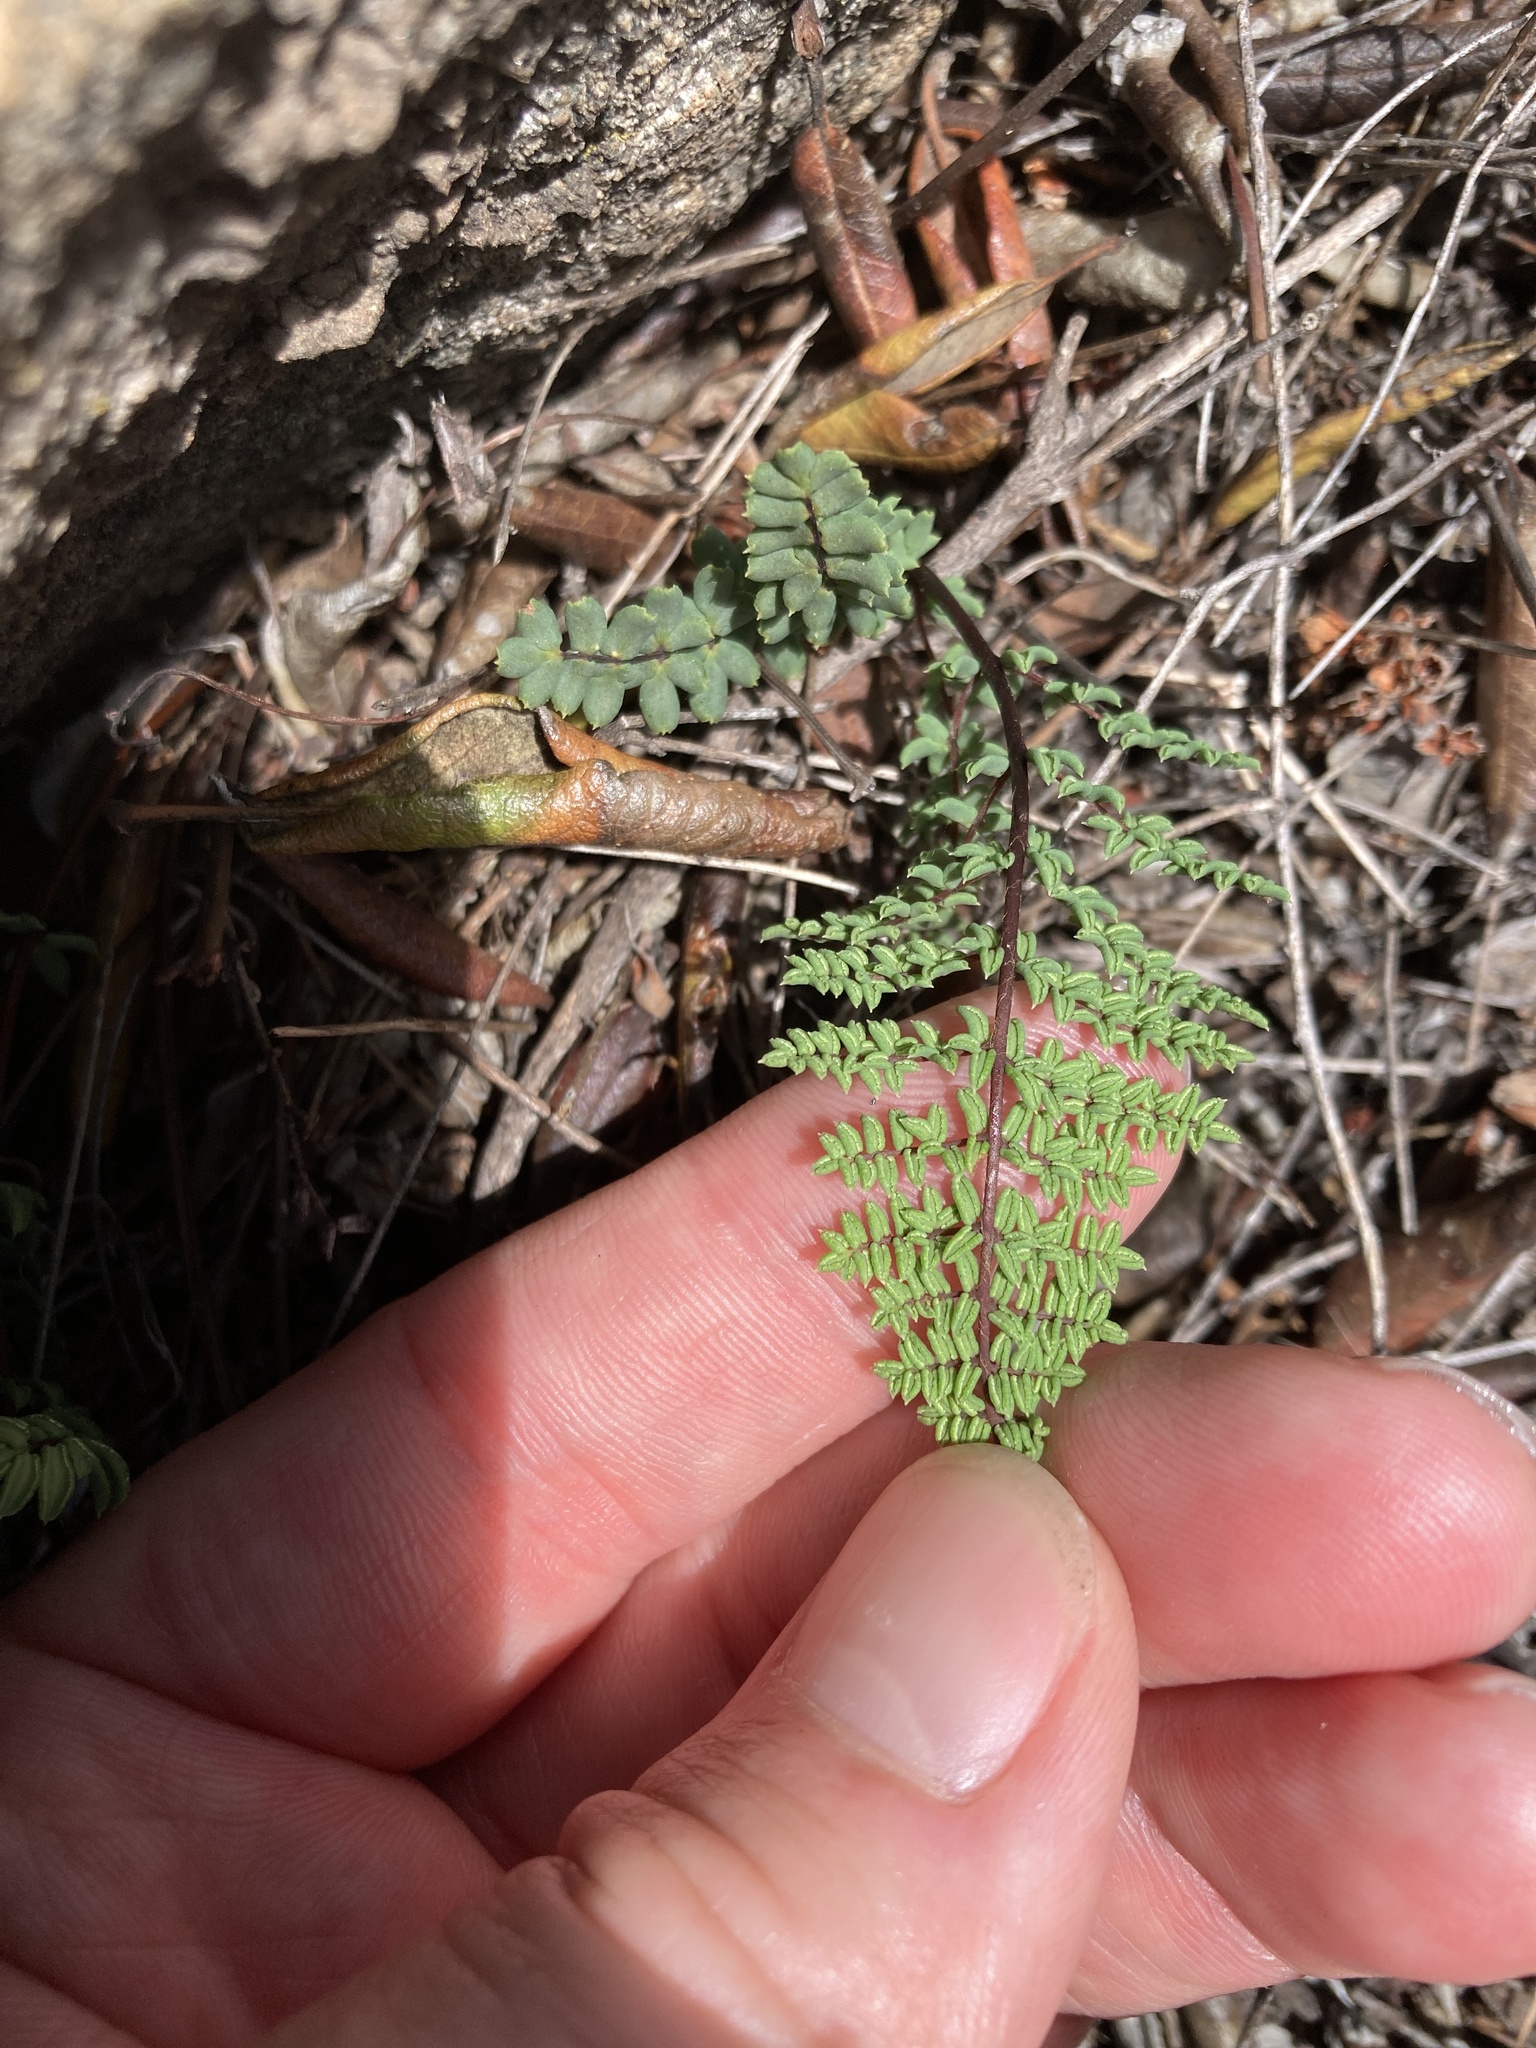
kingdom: Plantae
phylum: Tracheophyta
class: Polypodiopsida
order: Polypodiales
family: Pteridaceae
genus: Pellaea
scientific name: Pellaea mucronata
